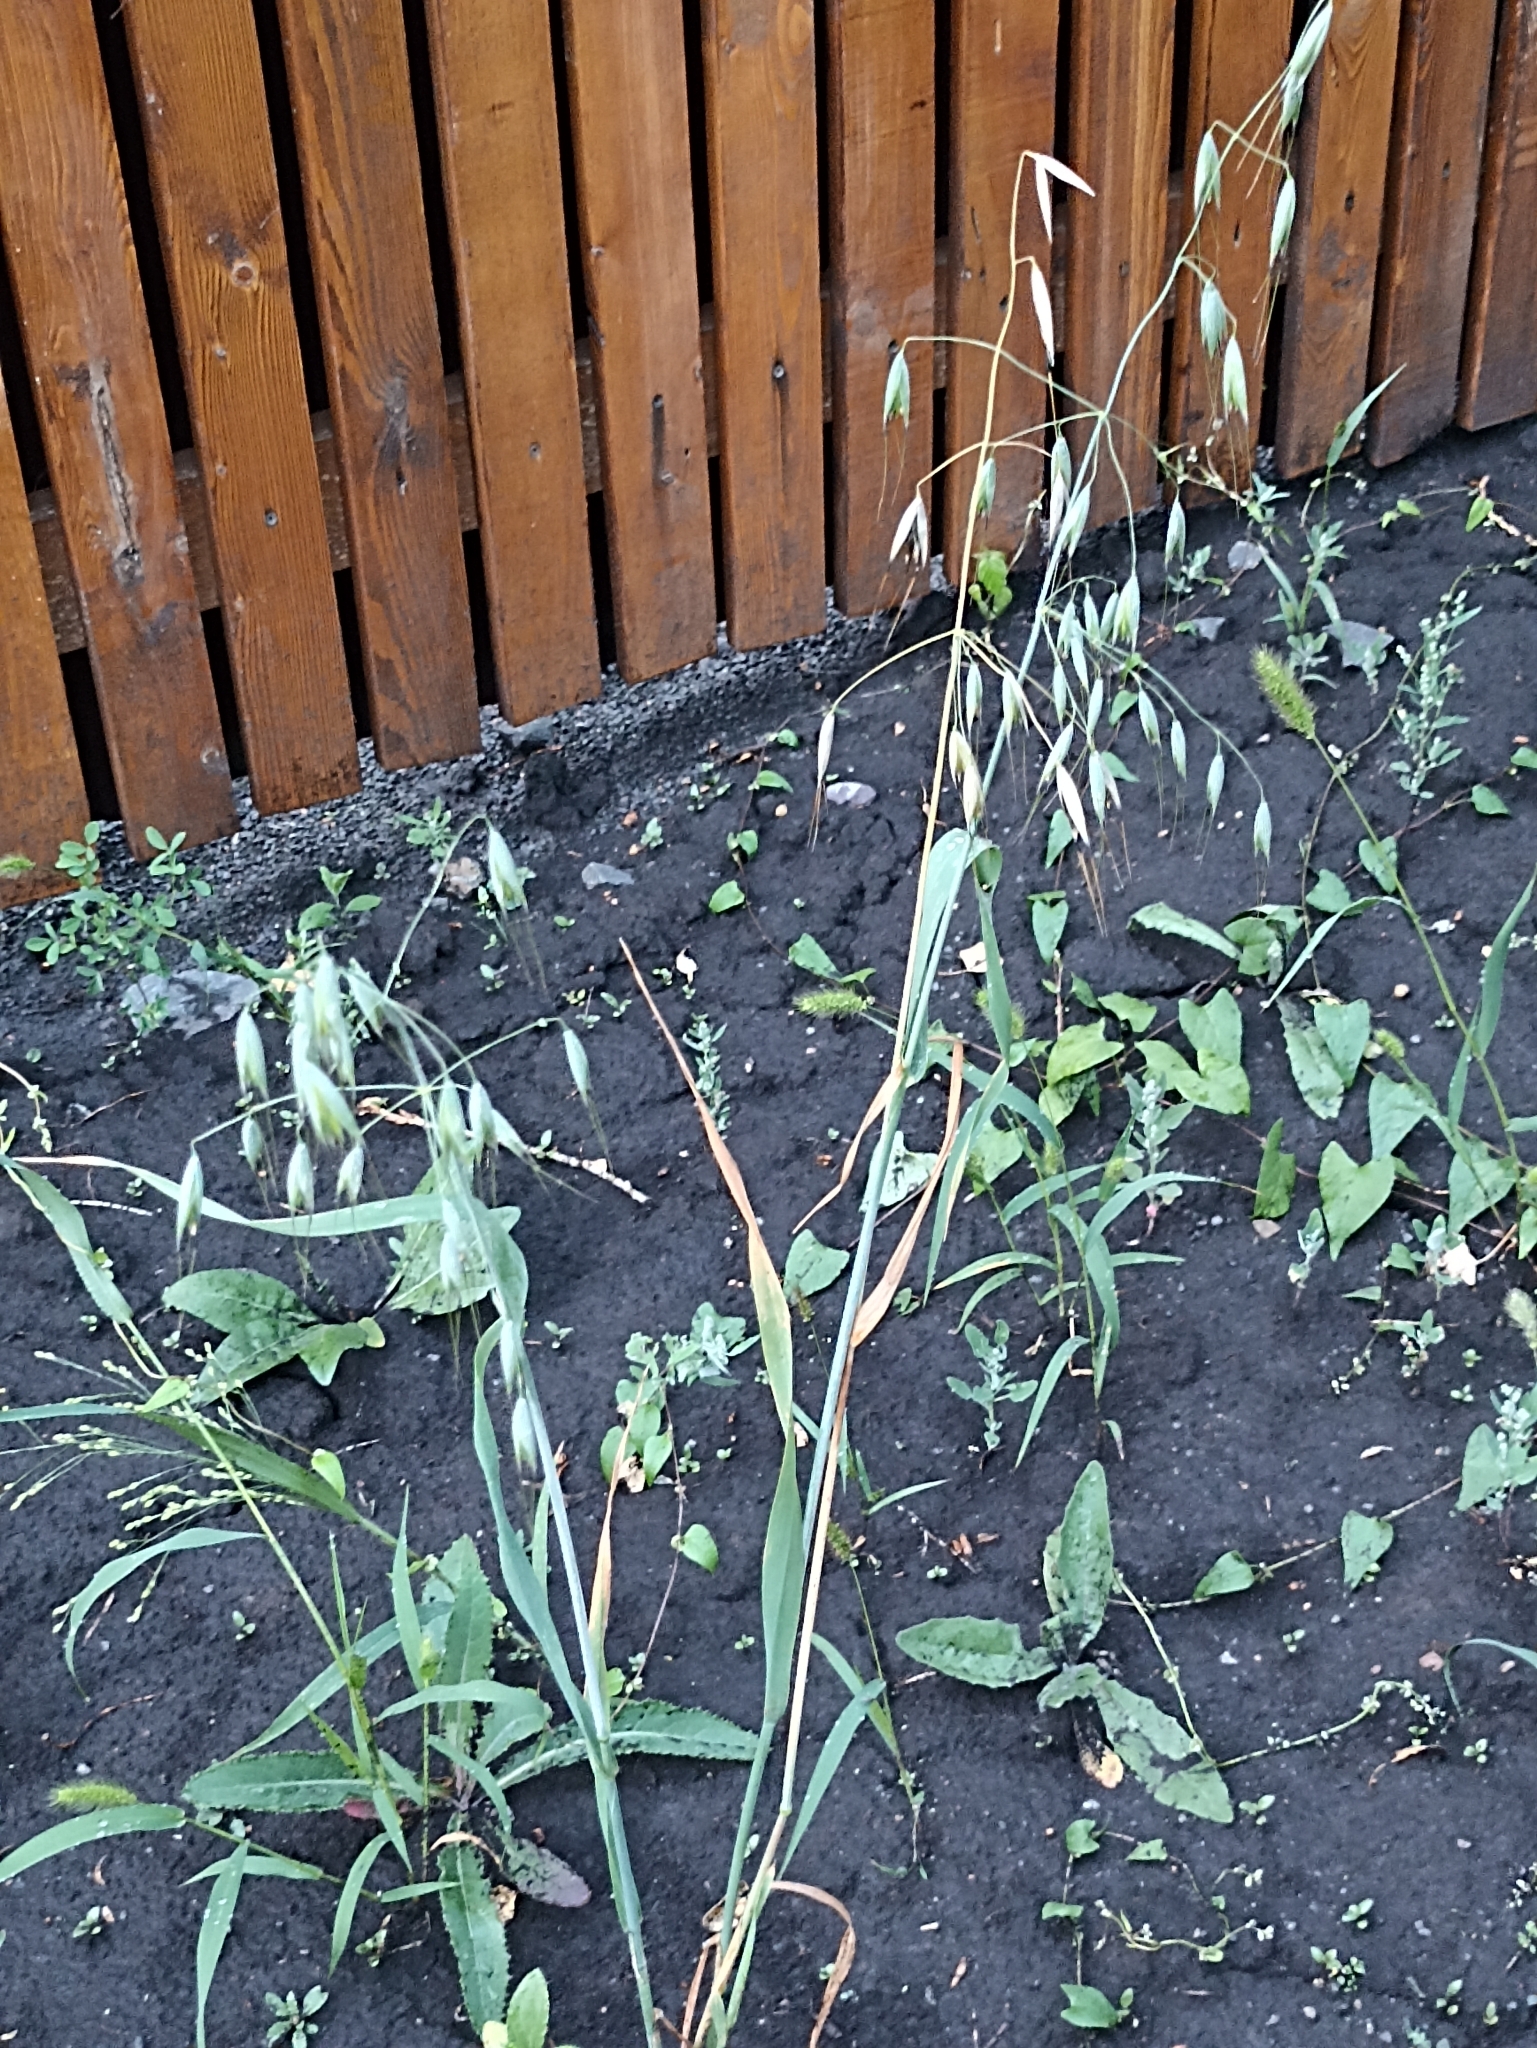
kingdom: Plantae
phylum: Tracheophyta
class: Liliopsida
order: Poales
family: Poaceae
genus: Avena
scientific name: Avena fatua
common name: Wild oat
